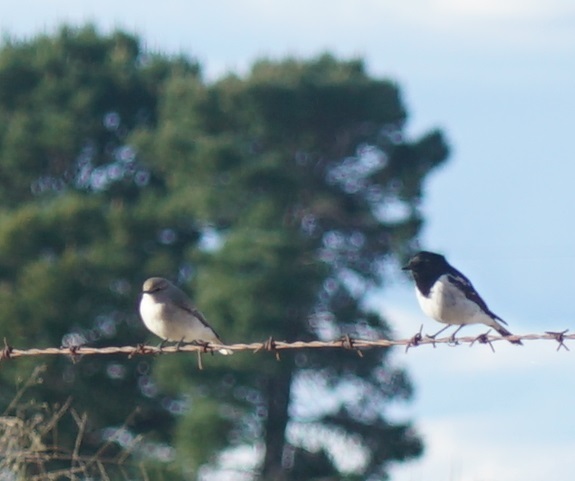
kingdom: Animalia
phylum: Chordata
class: Aves
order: Passeriformes
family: Petroicidae
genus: Melanodryas
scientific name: Melanodryas cucullata
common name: Hooded robin
